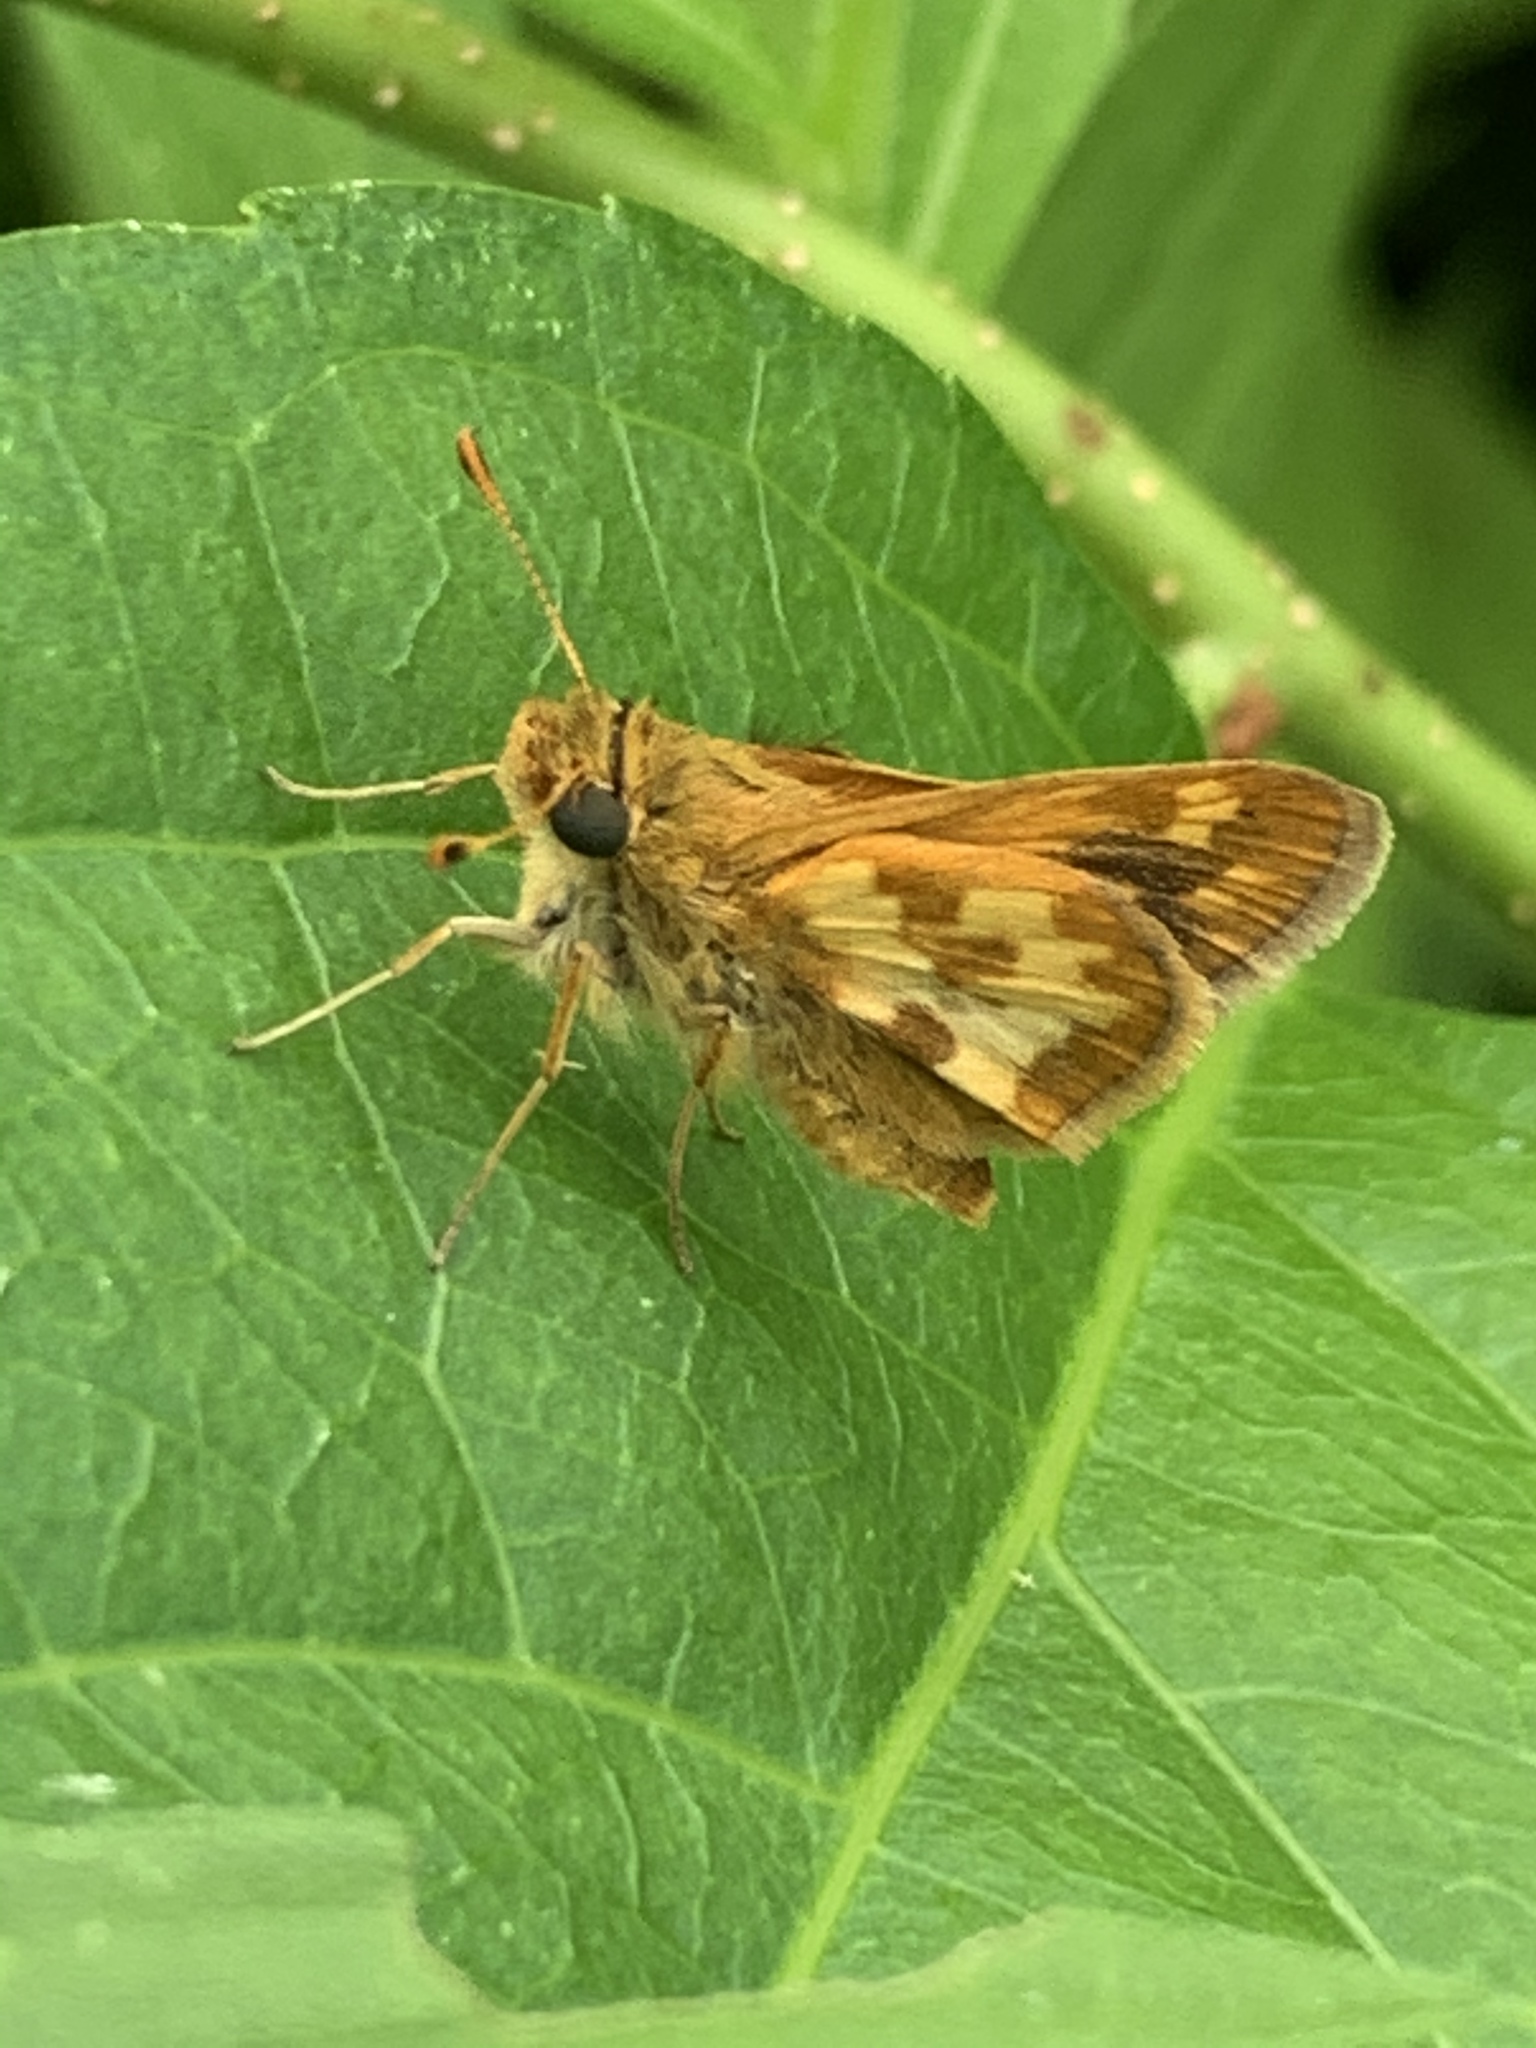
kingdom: Animalia
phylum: Arthropoda
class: Insecta
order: Lepidoptera
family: Hesperiidae
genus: Polites
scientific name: Polites coras
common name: Peck's skipper
